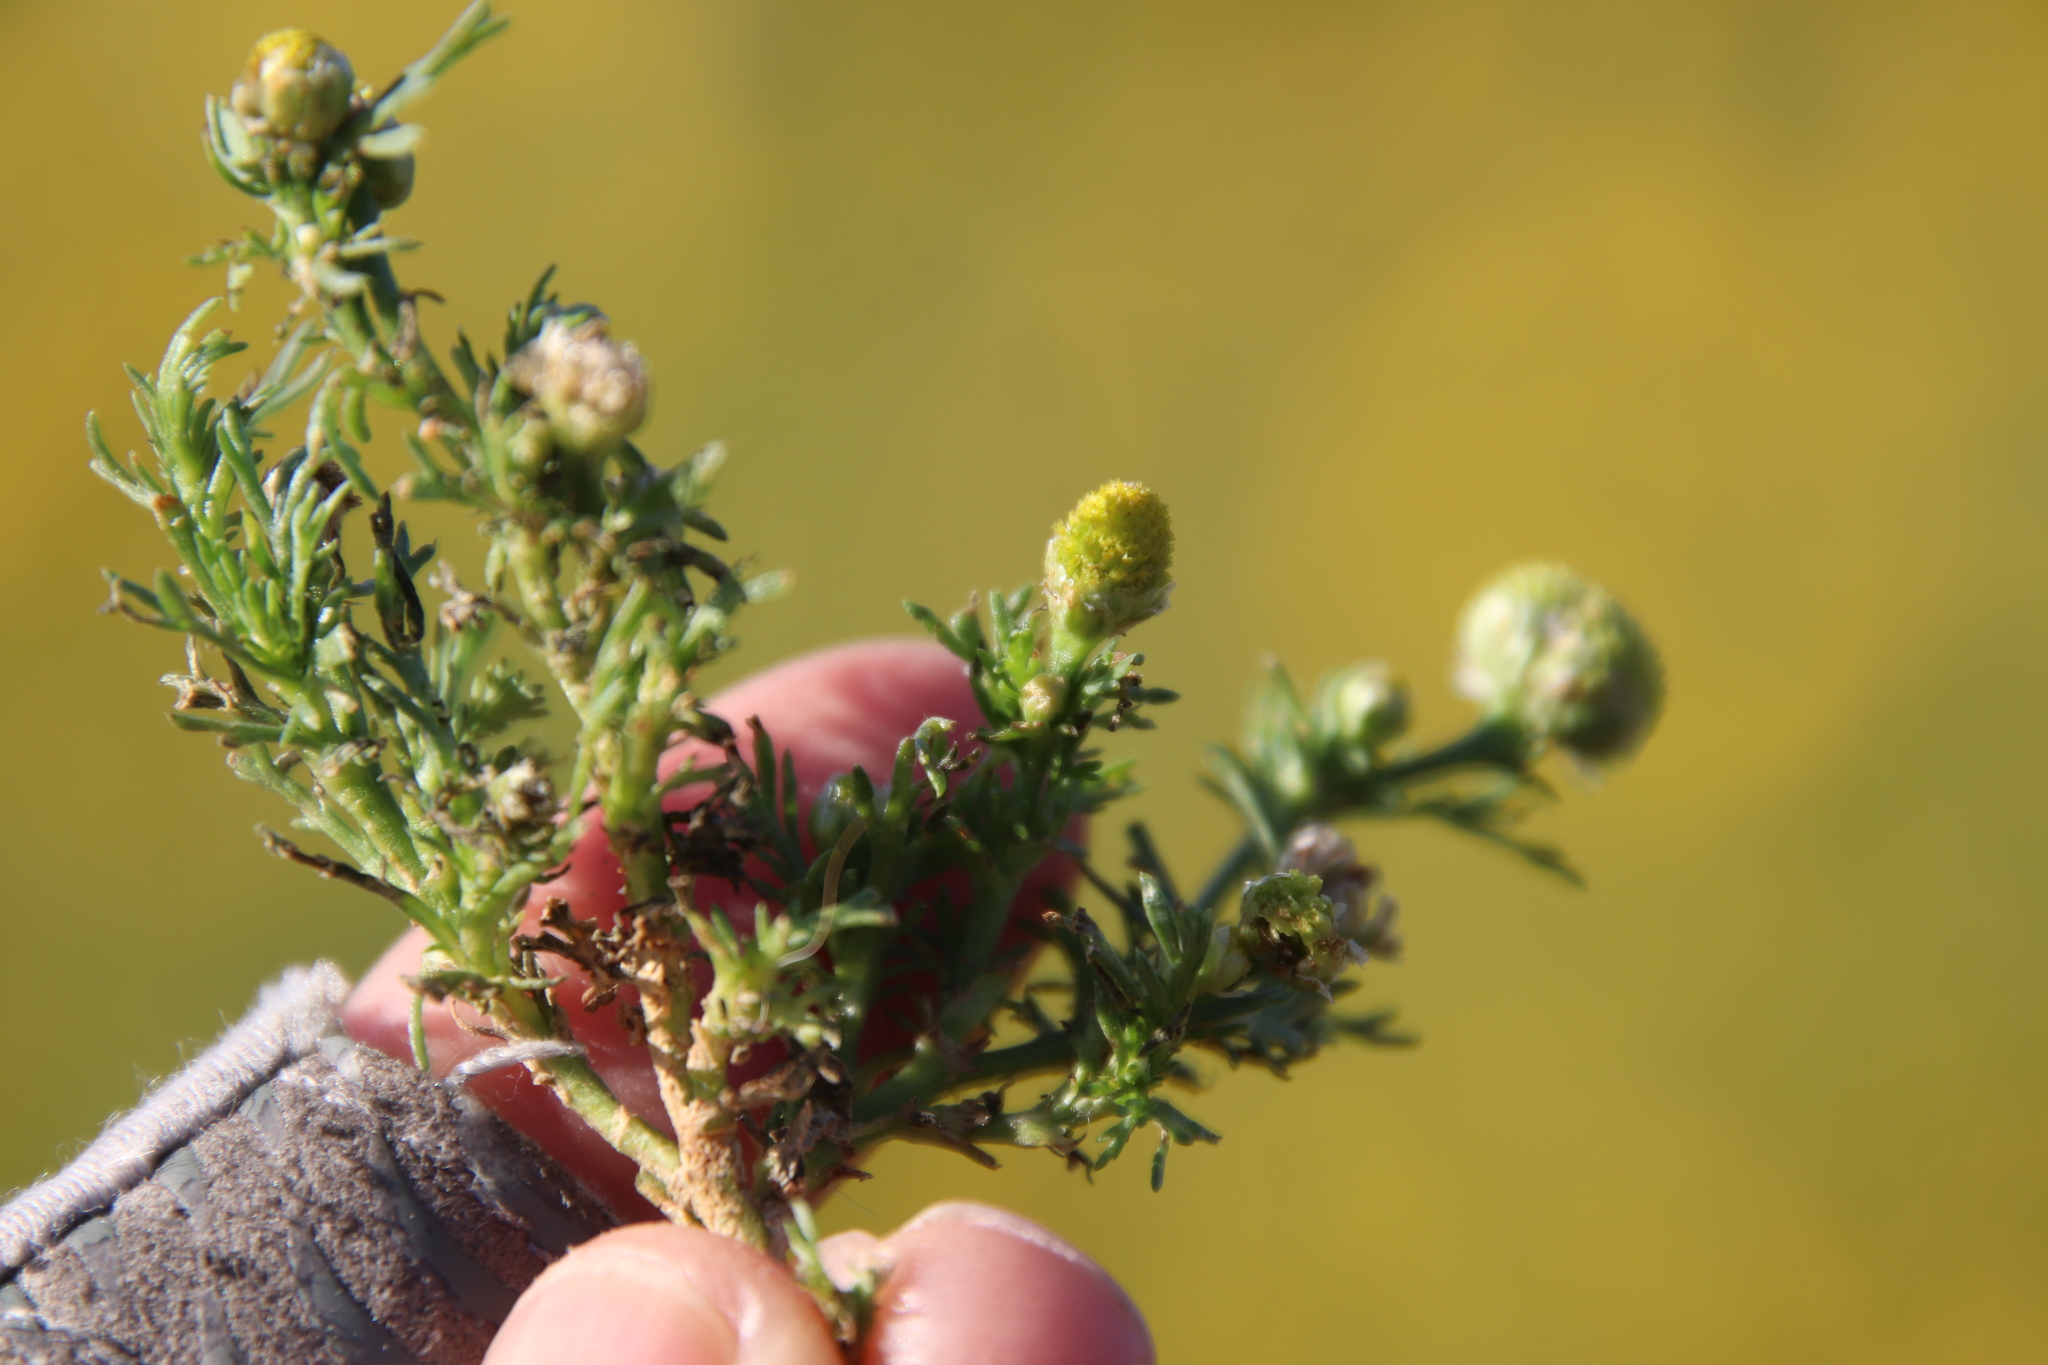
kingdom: Plantae
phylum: Tracheophyta
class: Magnoliopsida
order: Asterales
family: Asteraceae
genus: Matricaria
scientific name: Matricaria discoidea
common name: Disc mayweed
